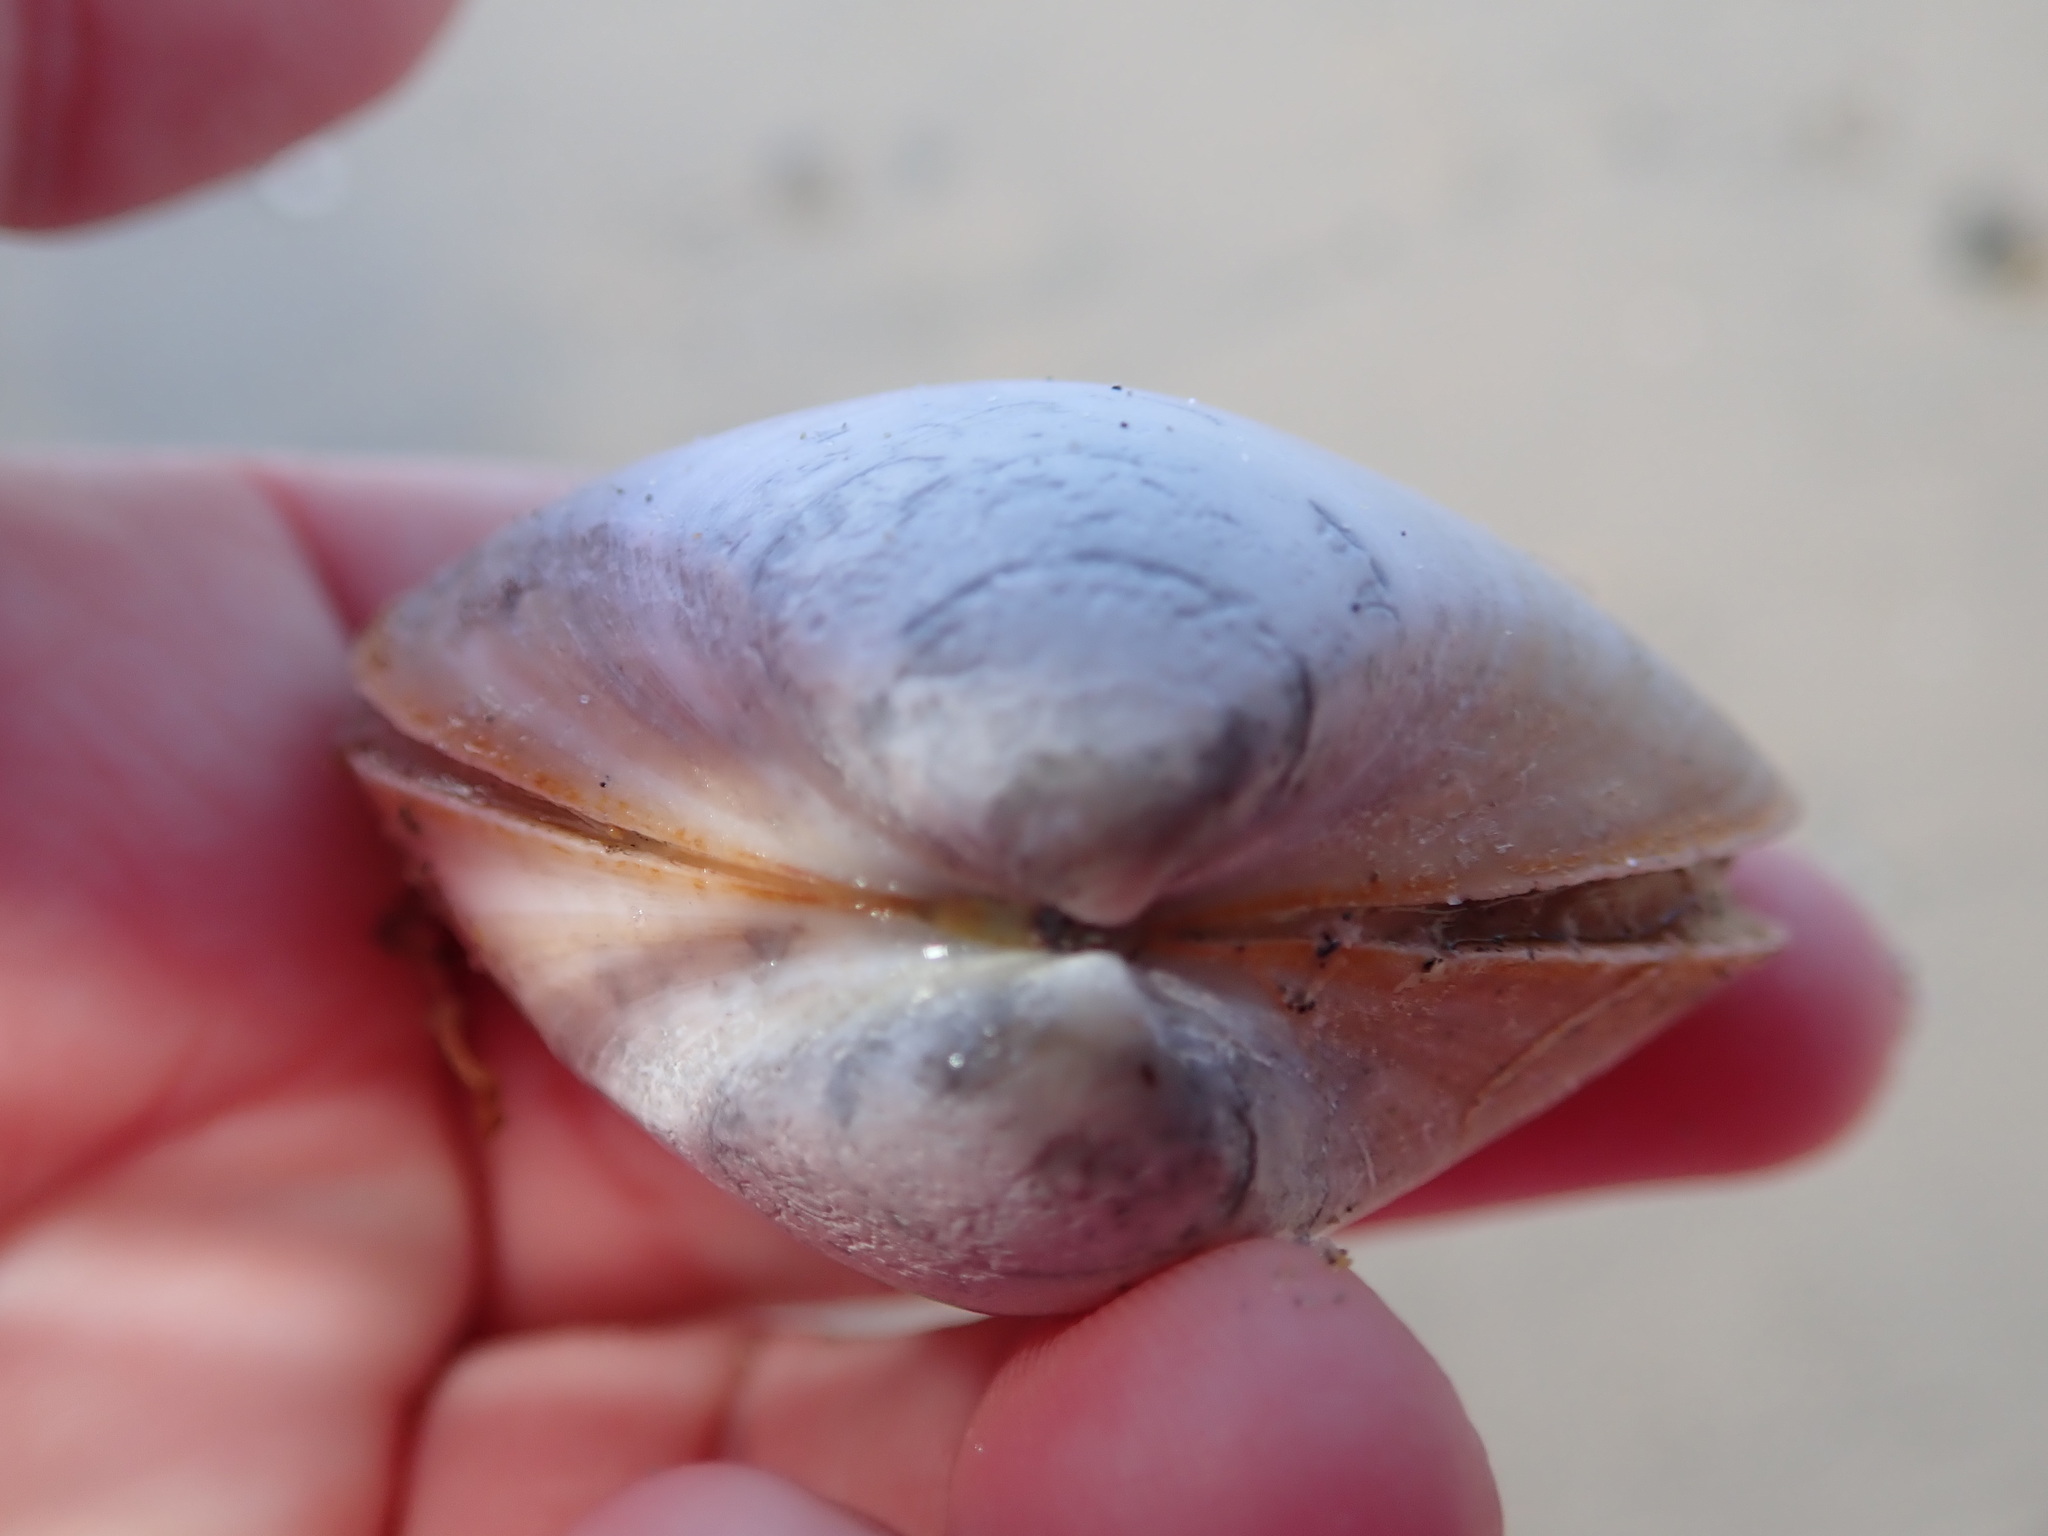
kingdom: Animalia
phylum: Mollusca
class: Bivalvia
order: Venerida
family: Mactridae
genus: Spisula
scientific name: Spisula solidissima
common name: Atlantic surf clam
